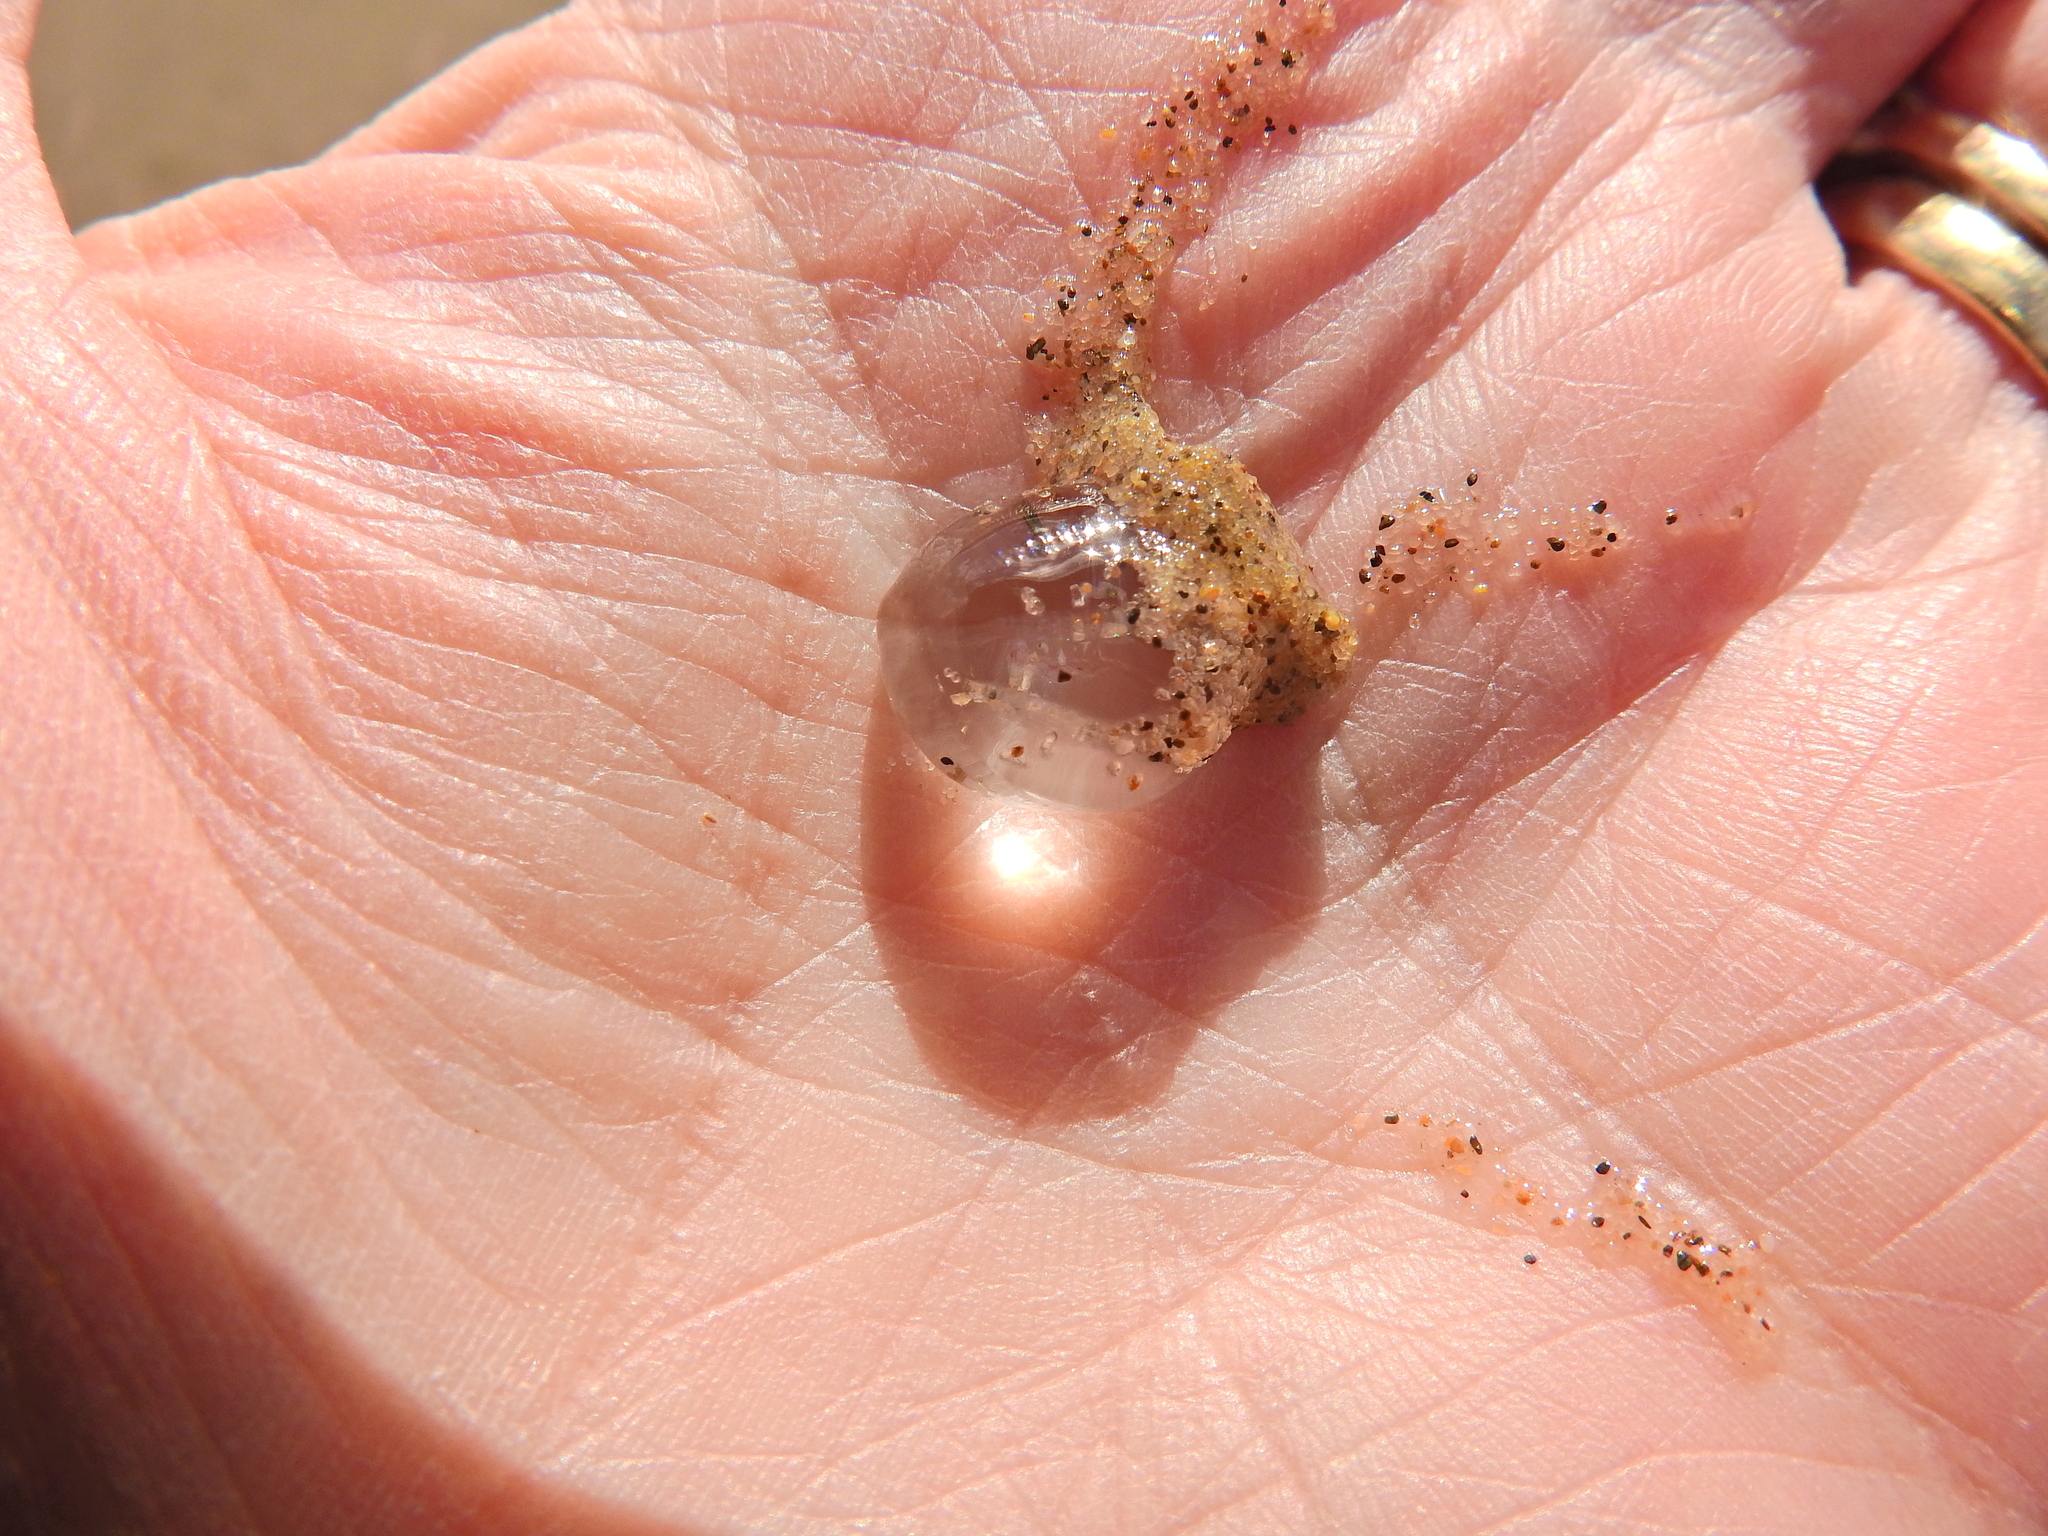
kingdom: Animalia
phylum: Ctenophora
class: Tentaculata
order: Cydippida
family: Pleurobrachiidae
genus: Pleurobrachia
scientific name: Pleurobrachia pileus
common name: Sea gooseberry
